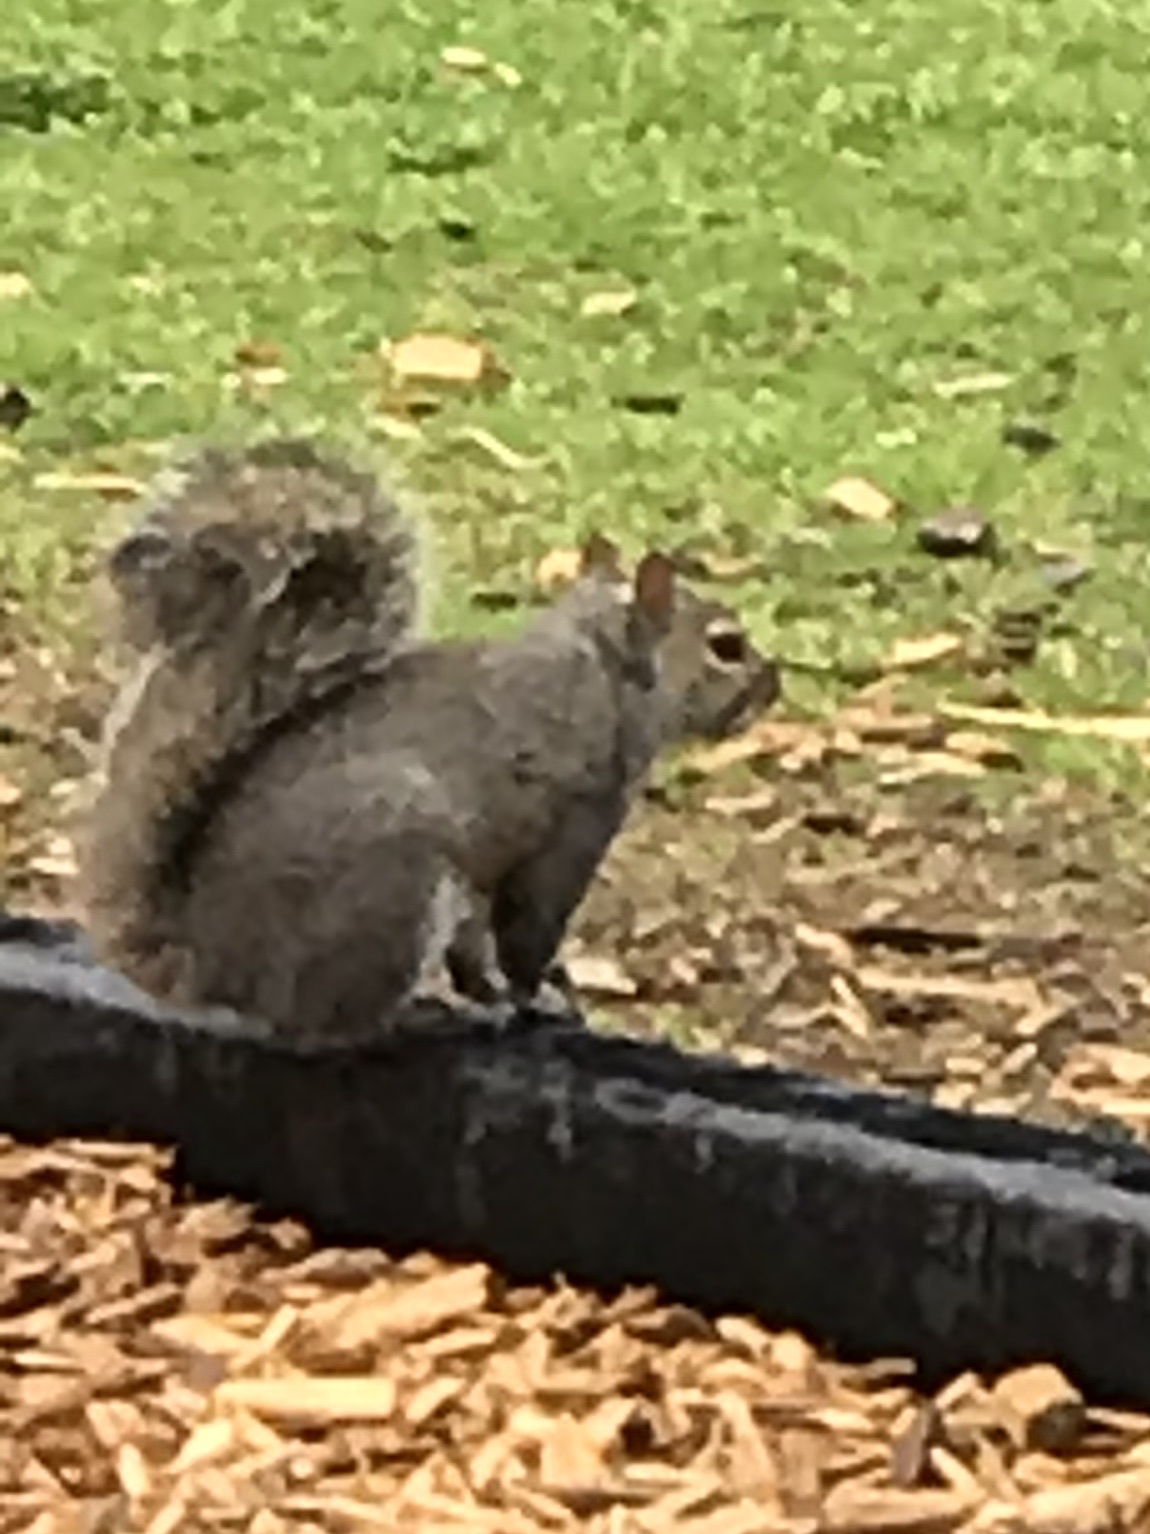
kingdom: Animalia
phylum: Chordata
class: Mammalia
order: Rodentia
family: Sciuridae
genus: Sciurus
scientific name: Sciurus carolinensis
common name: Eastern gray squirrel
